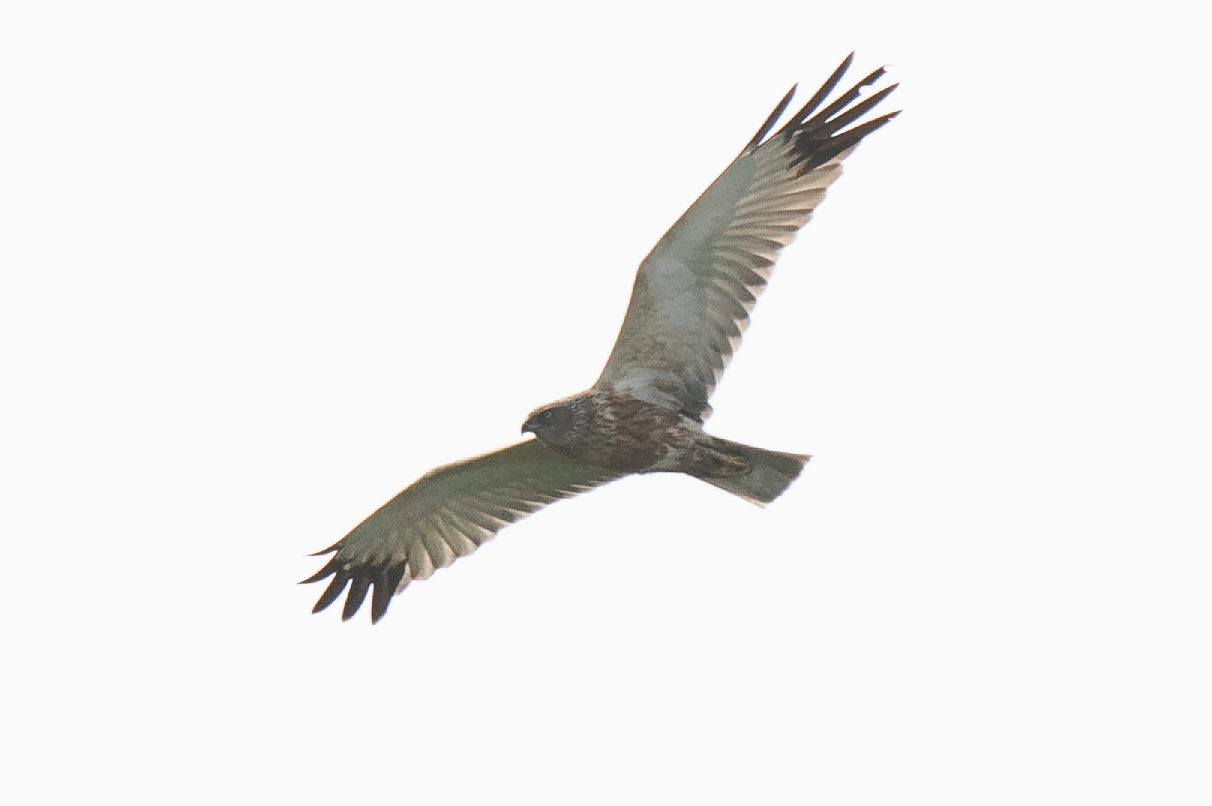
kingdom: Animalia
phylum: Chordata
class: Aves
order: Accipitriformes
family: Accipitridae
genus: Circus
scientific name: Circus aeruginosus
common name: Western marsh harrier
